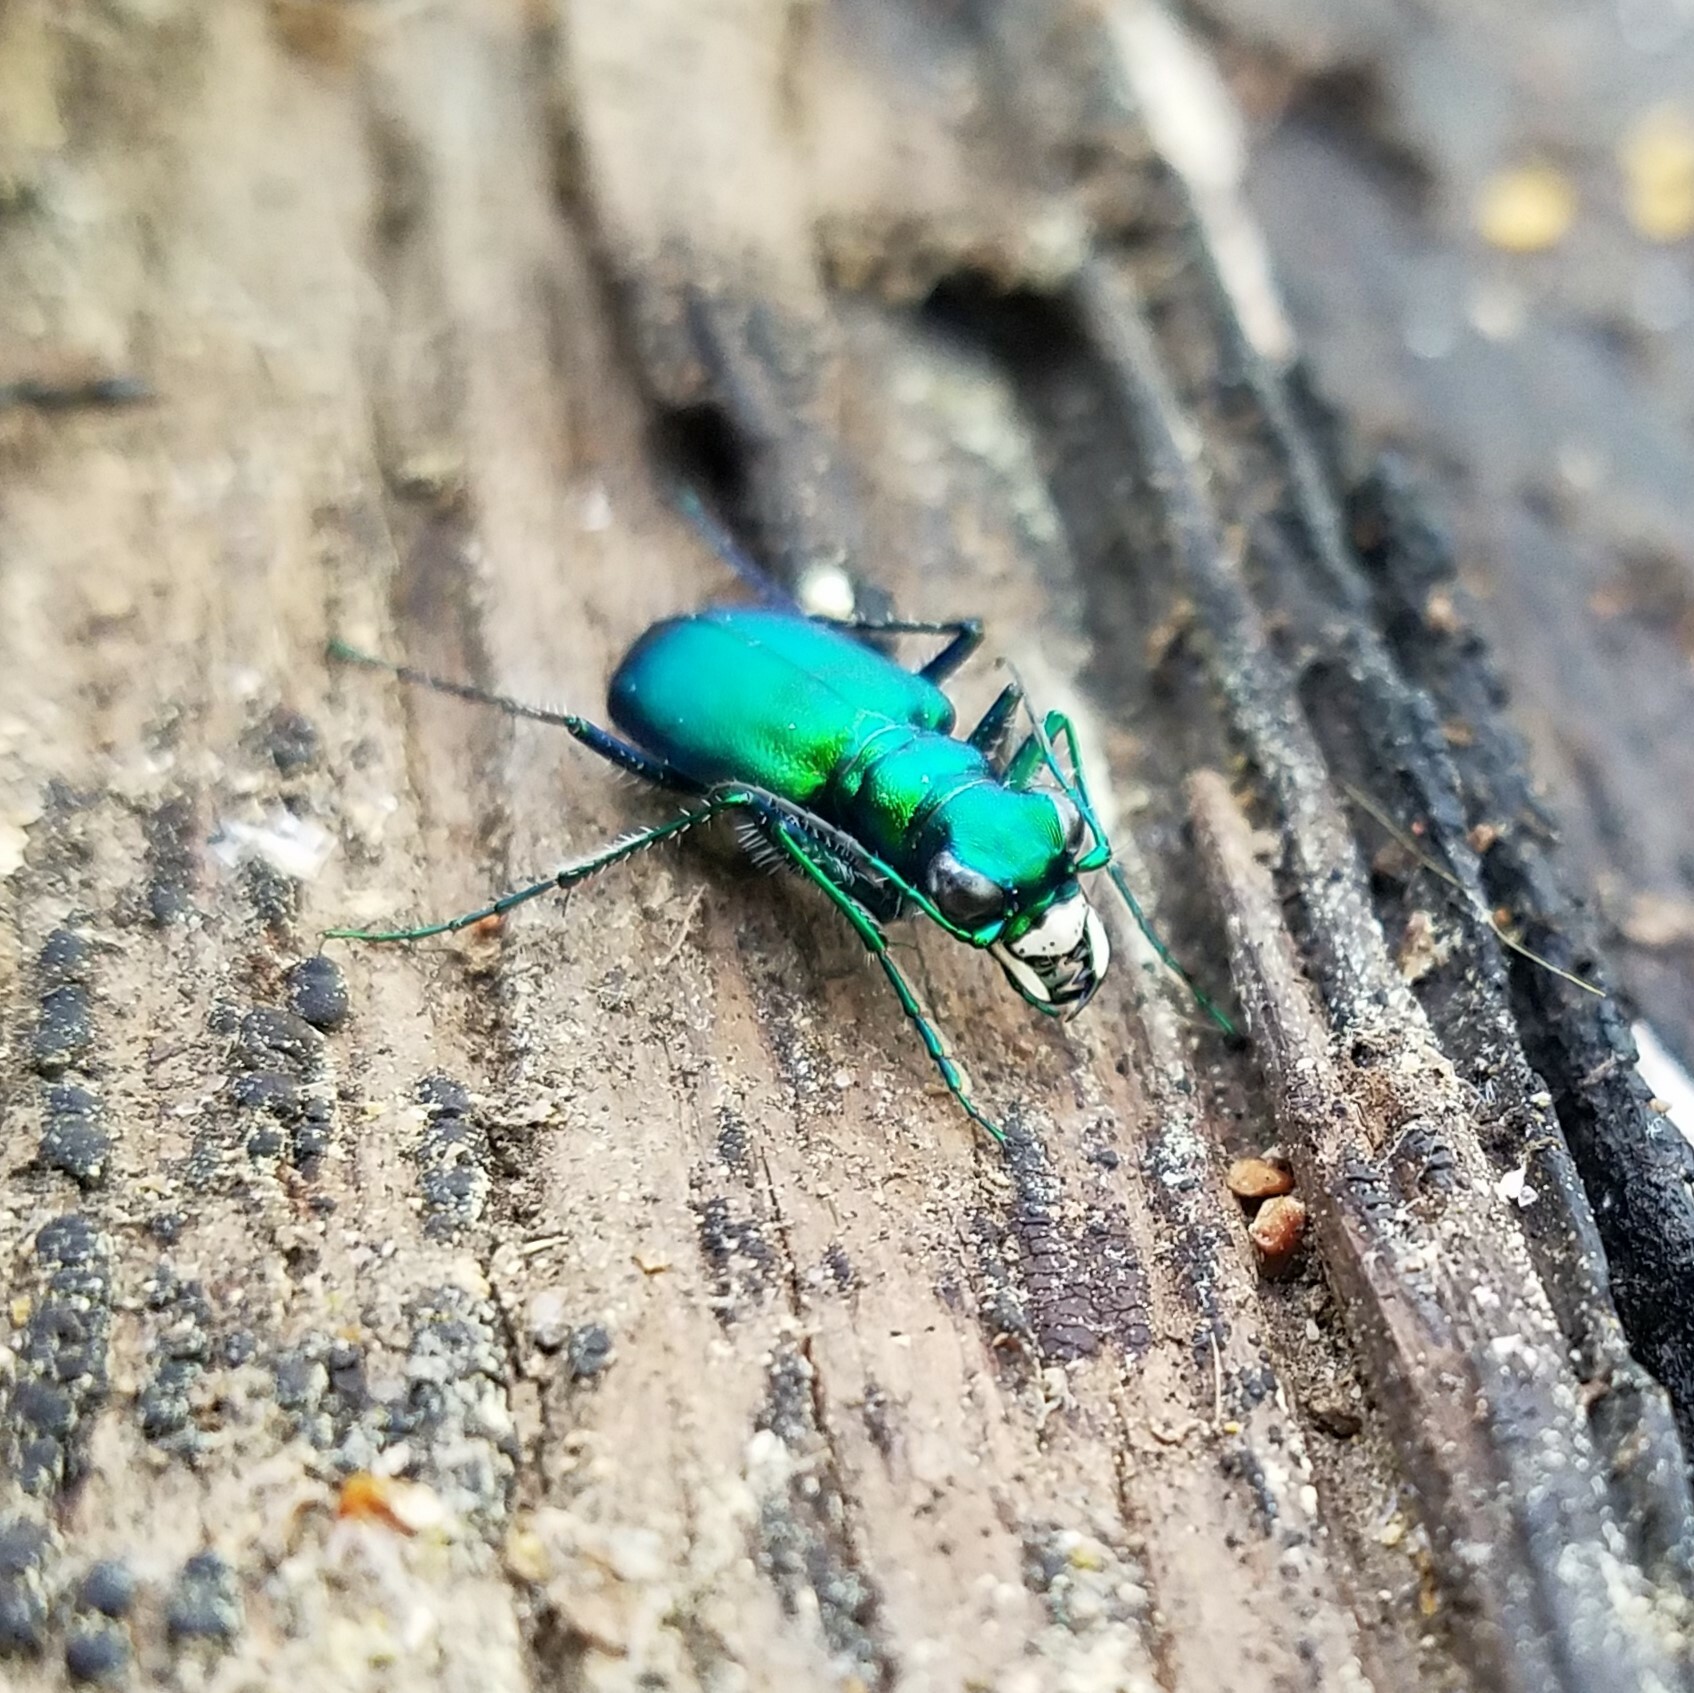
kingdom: Animalia
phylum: Arthropoda
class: Insecta
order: Coleoptera
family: Carabidae
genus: Cicindela
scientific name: Cicindela sexguttata
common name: Six-spotted tiger beetle
